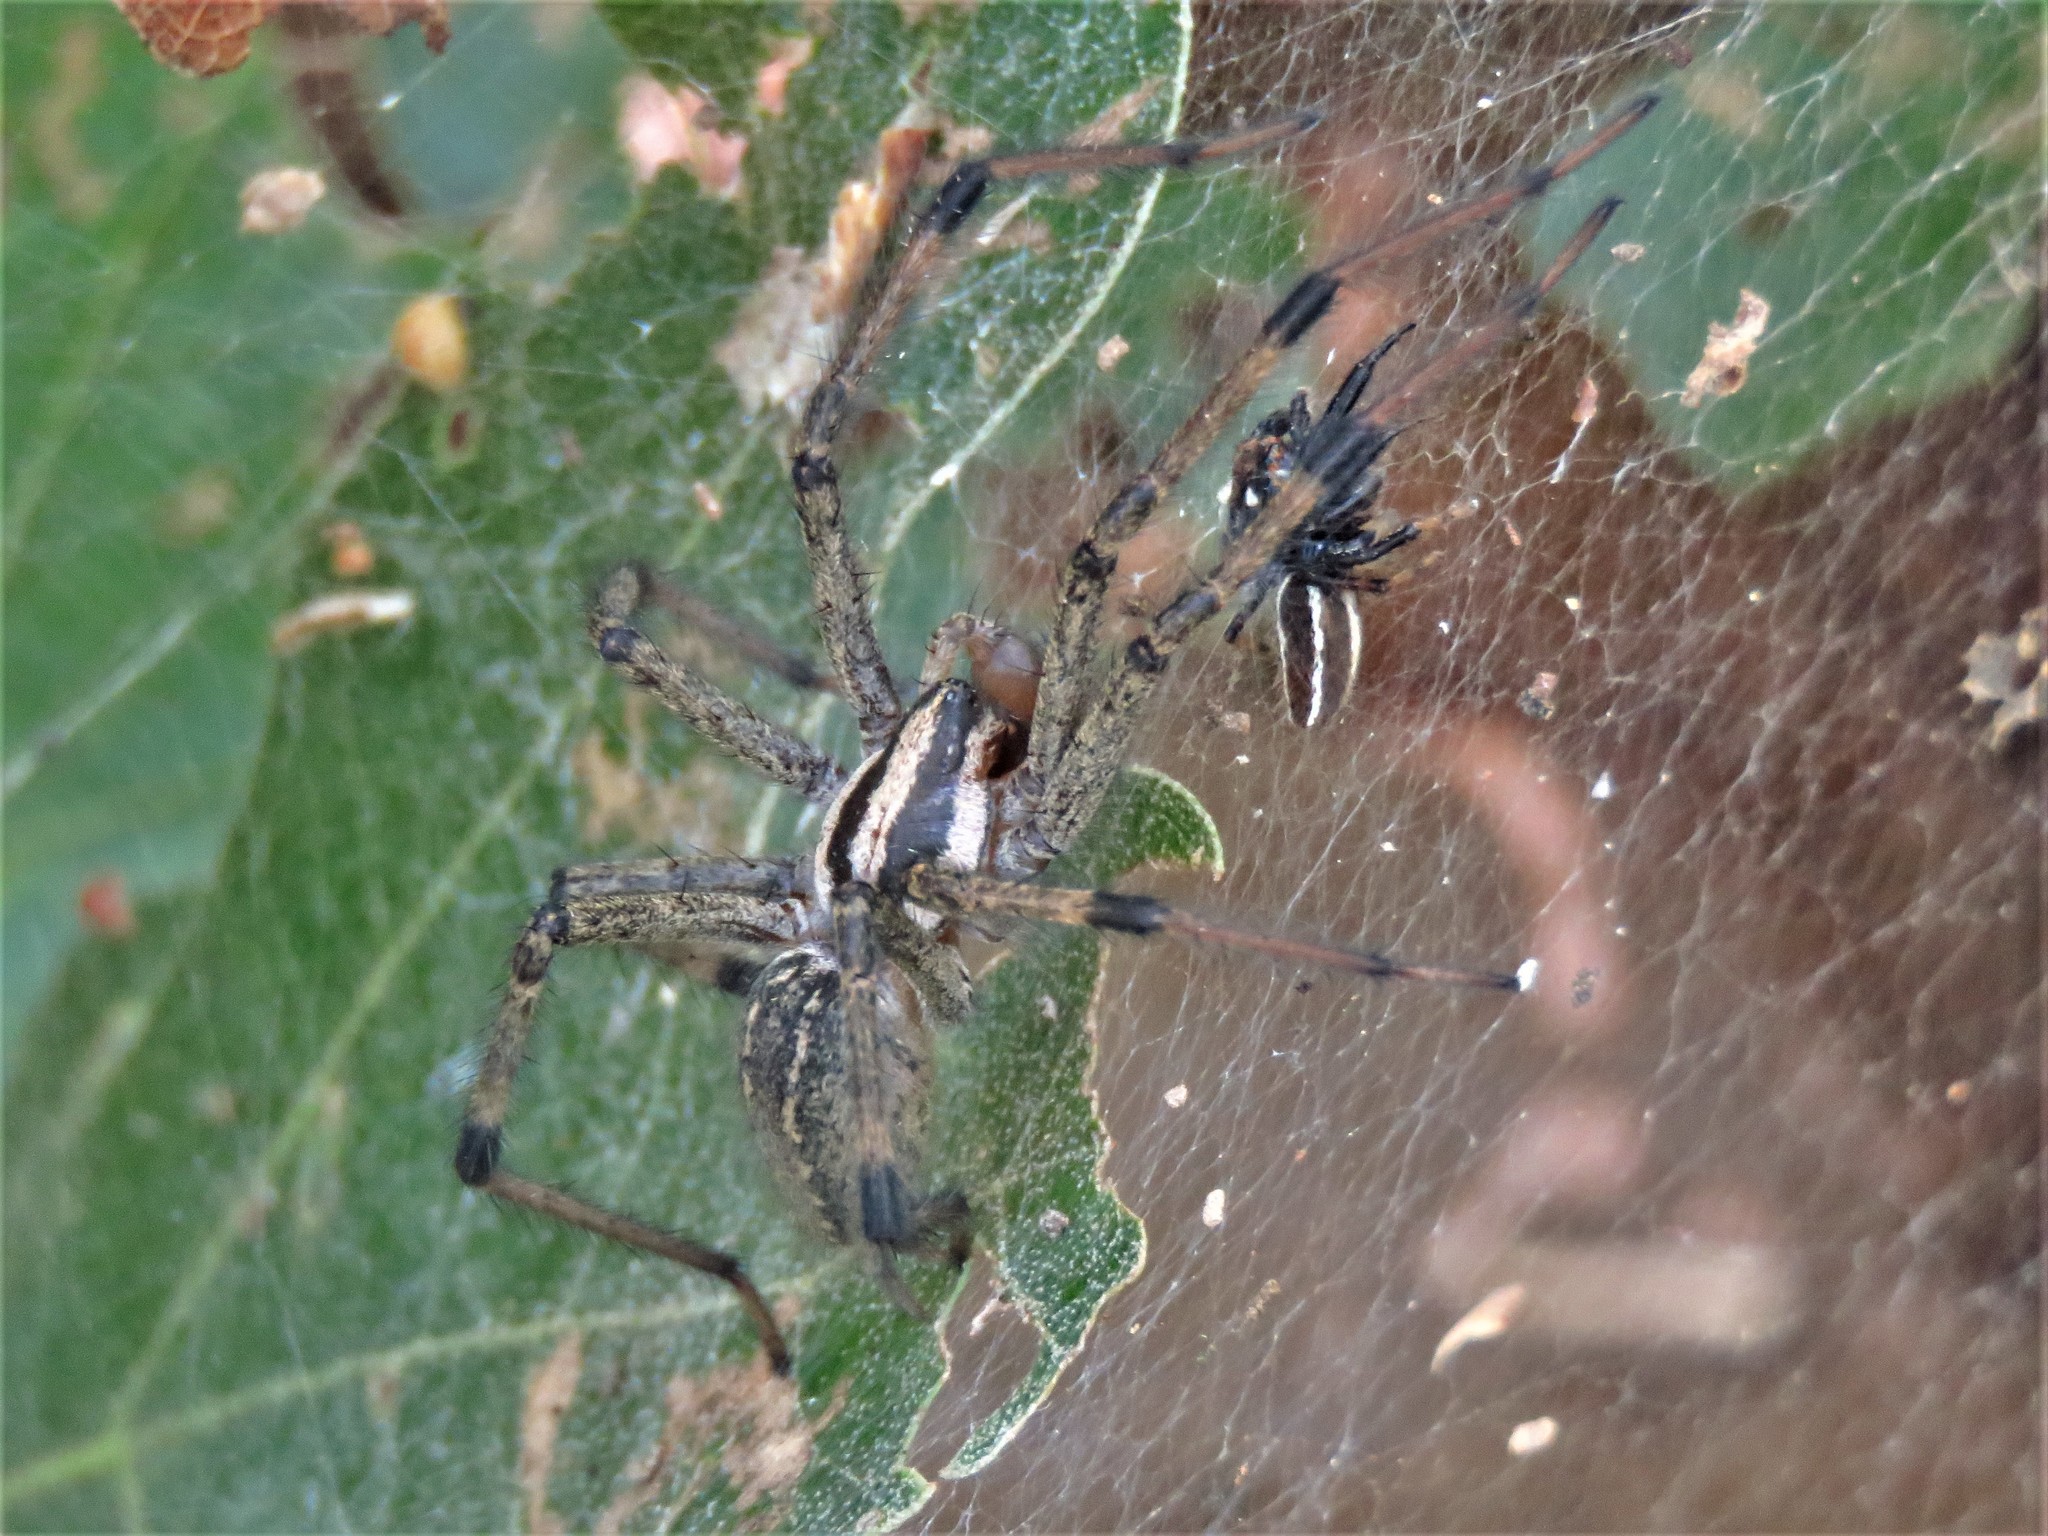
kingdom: Animalia
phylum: Arthropoda
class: Arachnida
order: Araneae
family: Agelenidae
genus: Agelenopsis
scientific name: Agelenopsis
